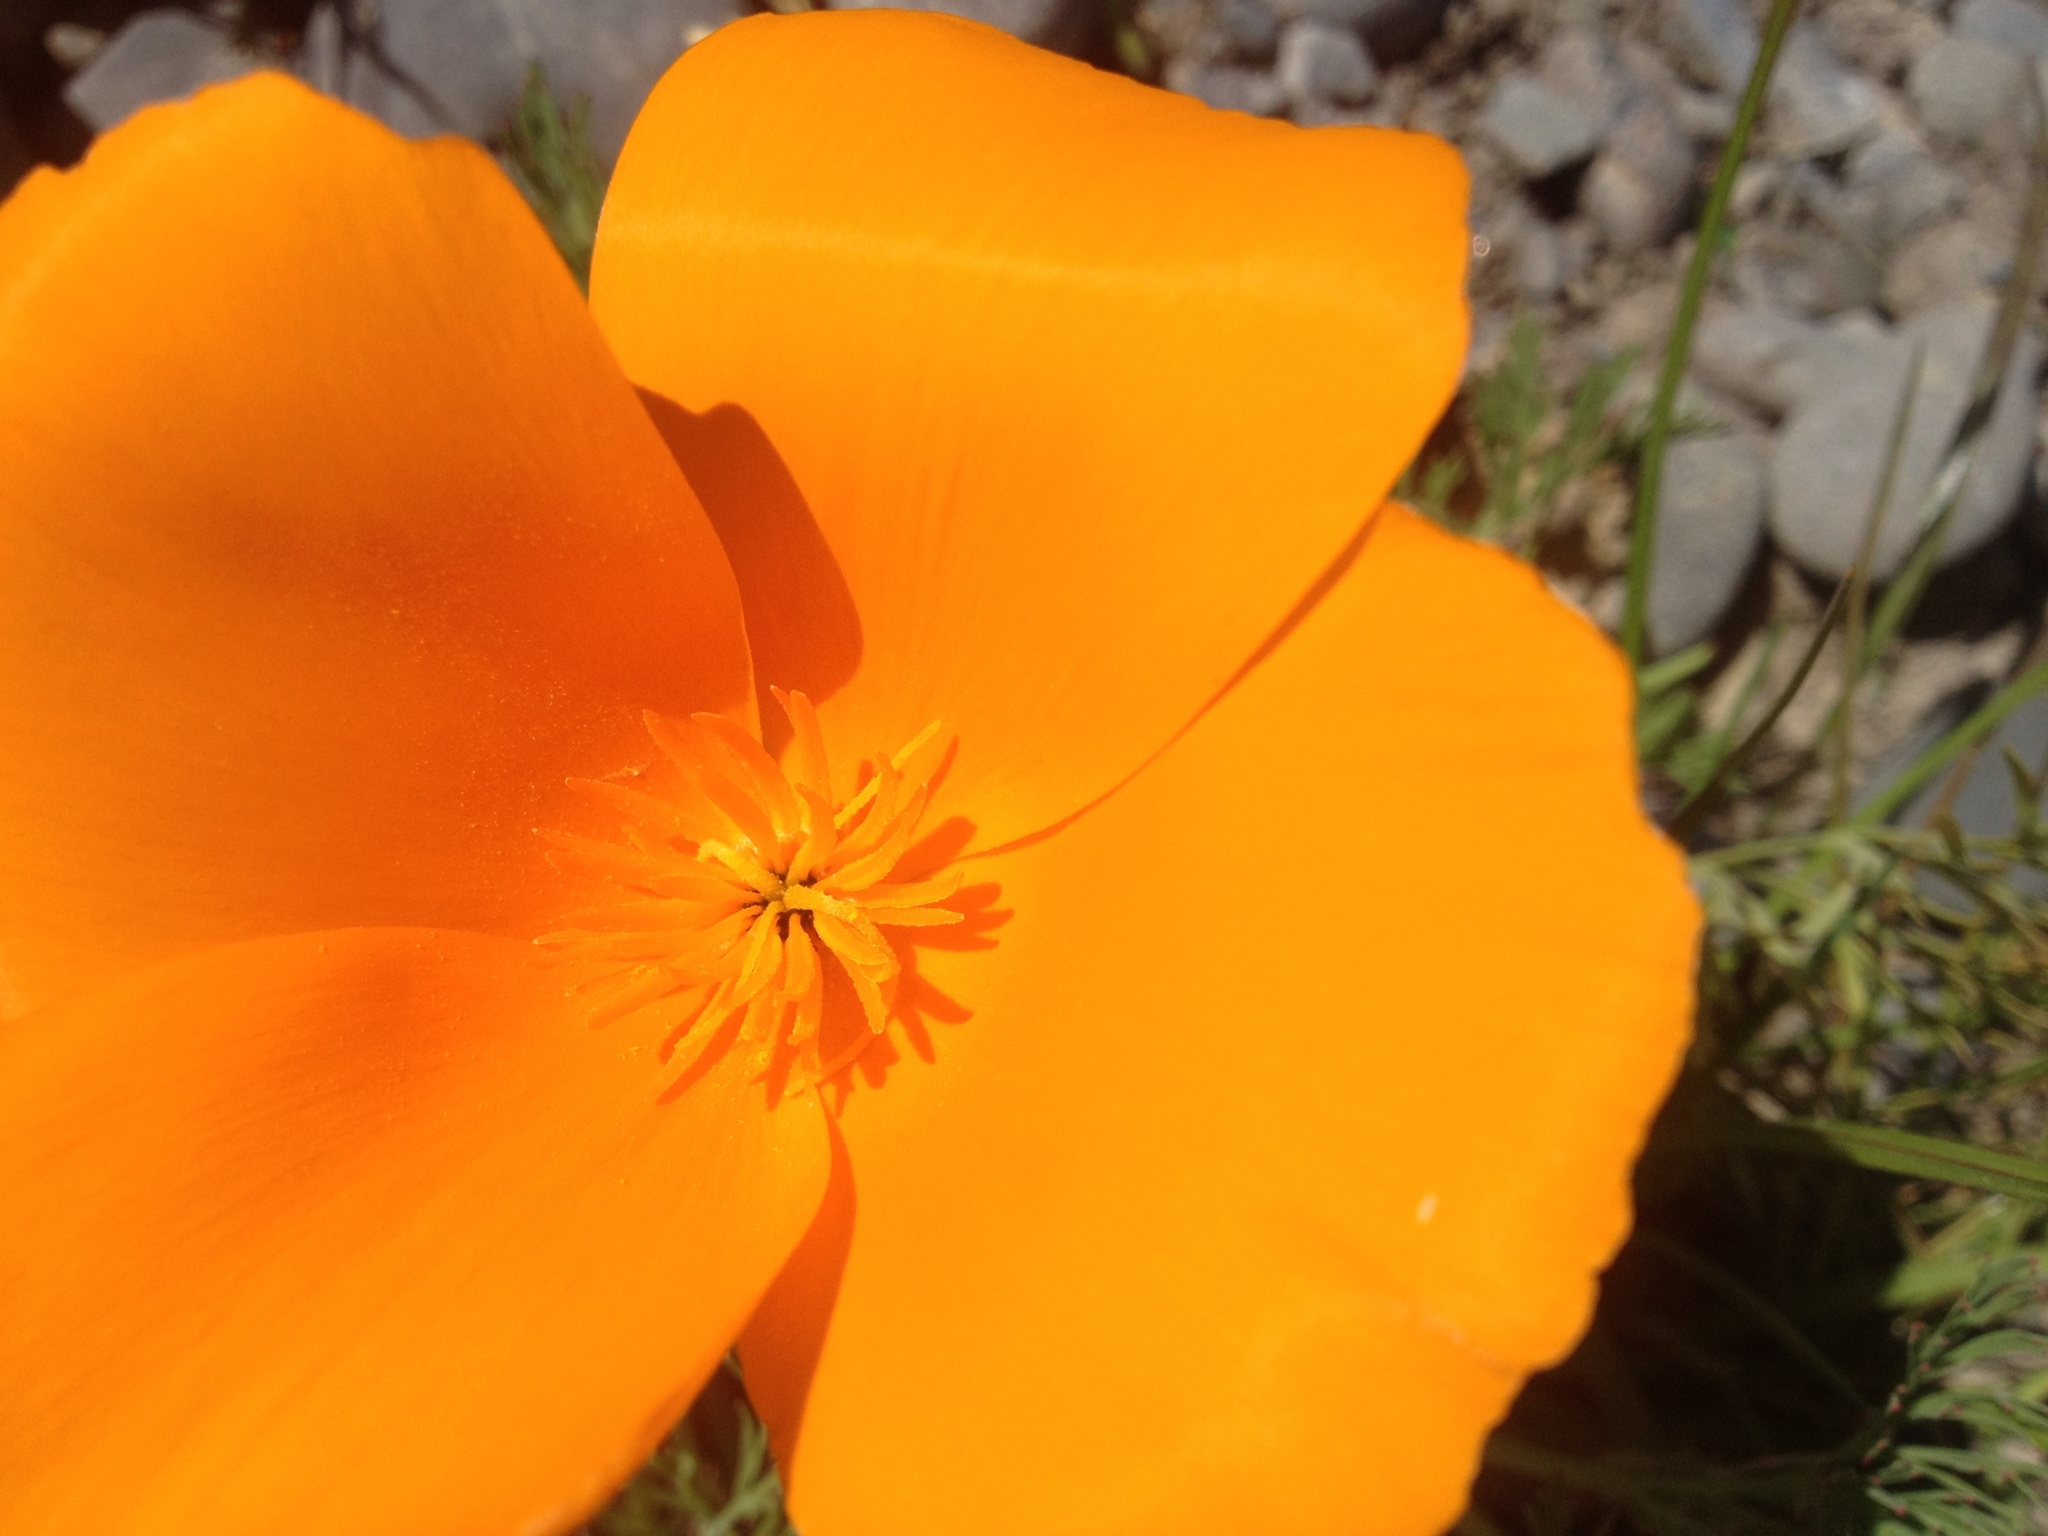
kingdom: Plantae
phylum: Tracheophyta
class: Magnoliopsida
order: Ranunculales
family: Papaveraceae
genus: Eschscholzia
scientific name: Eschscholzia californica
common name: California poppy
